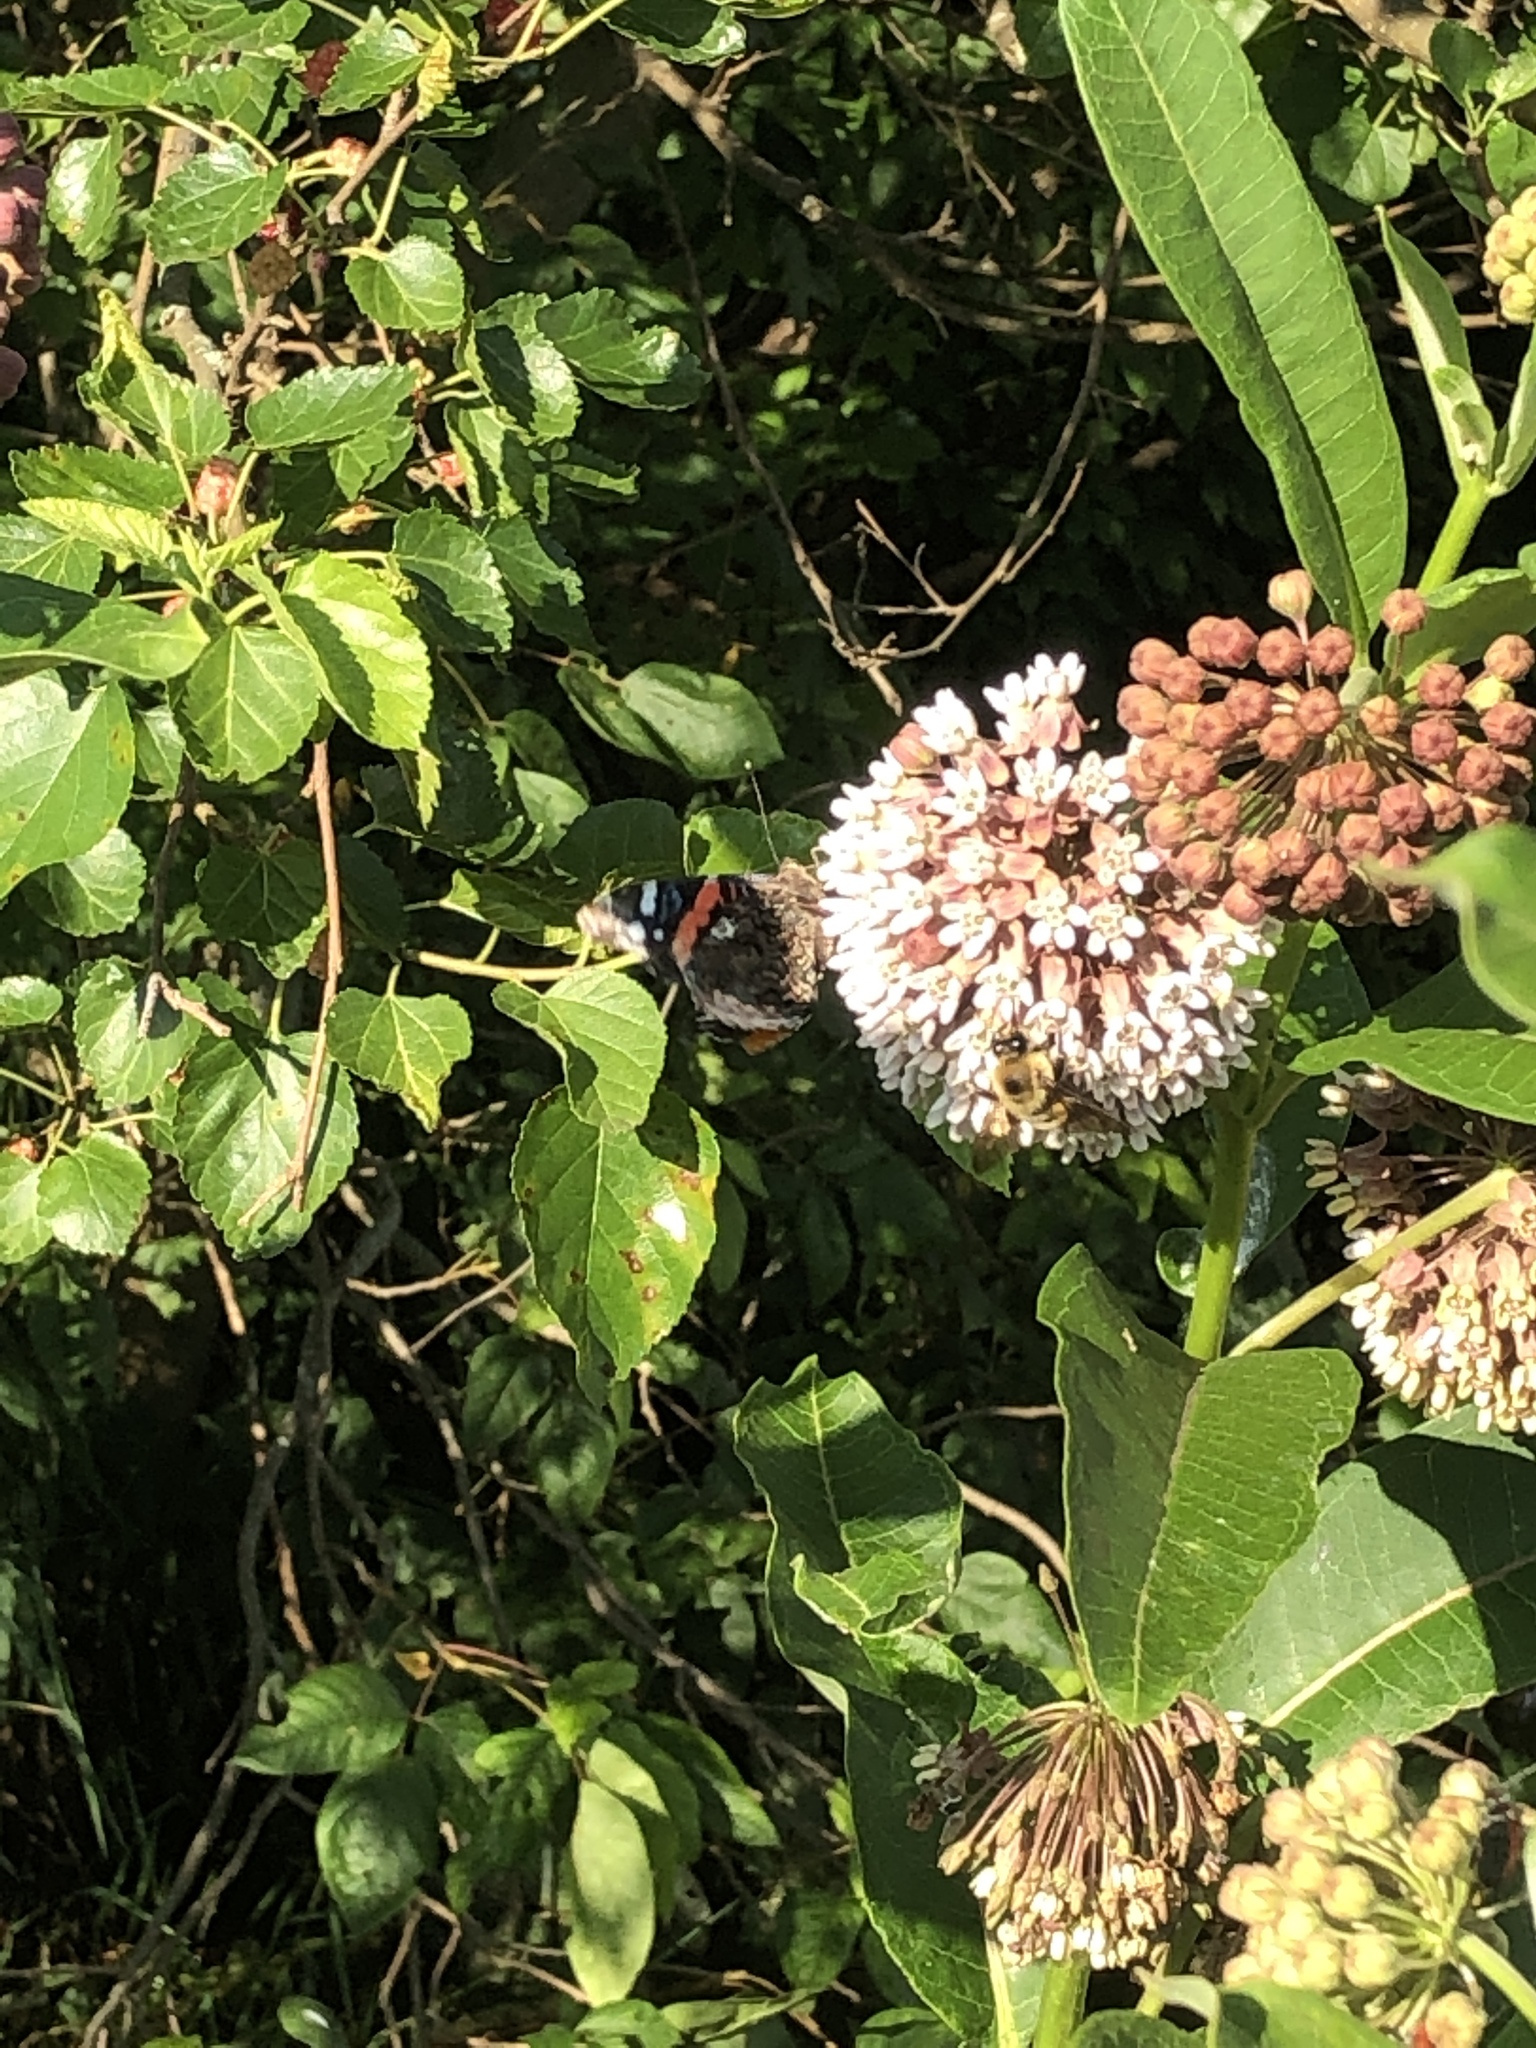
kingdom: Animalia
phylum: Arthropoda
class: Insecta
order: Lepidoptera
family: Nymphalidae
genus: Vanessa
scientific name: Vanessa atalanta
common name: Red admiral
